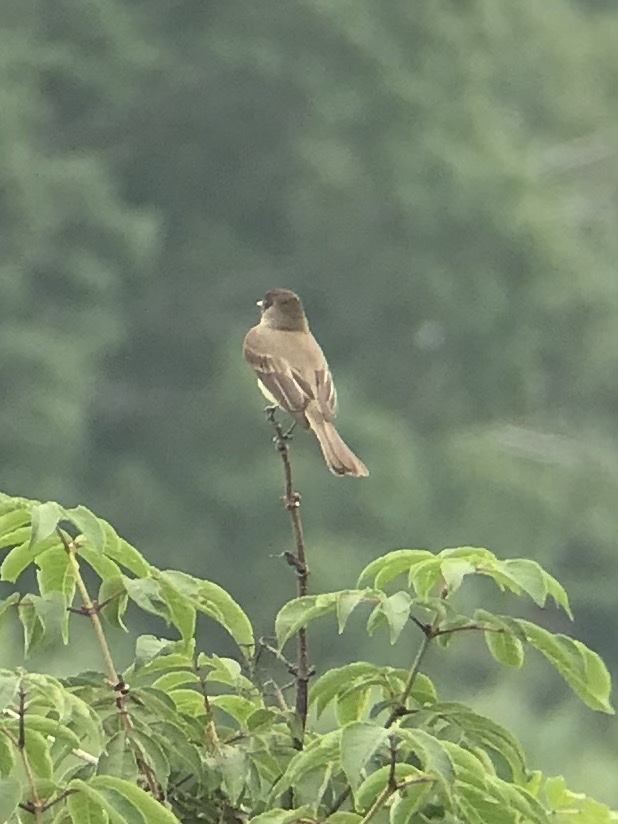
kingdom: Animalia
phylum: Chordata
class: Aves
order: Passeriformes
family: Tyrannidae
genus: Sayornis
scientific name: Sayornis phoebe
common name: Eastern phoebe
